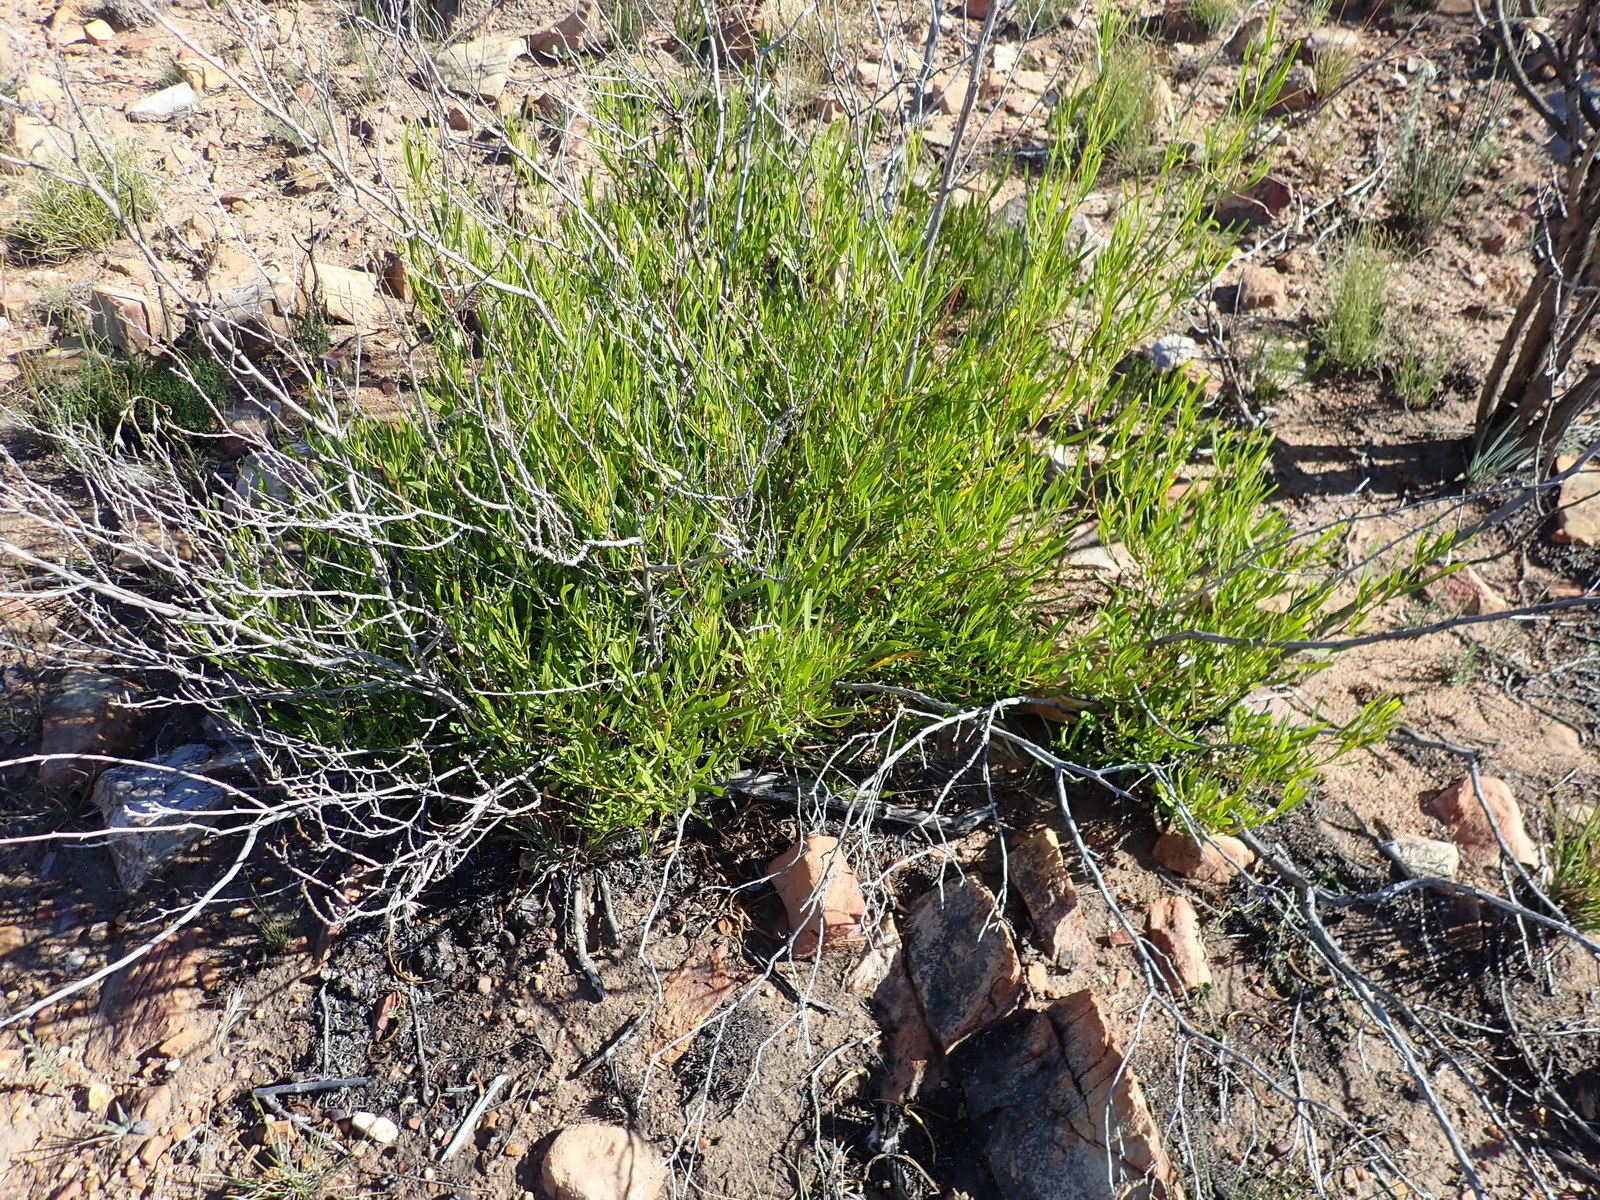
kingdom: Plantae
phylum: Tracheophyta
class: Magnoliopsida
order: Sapindales
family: Sapindaceae
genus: Dodonaea
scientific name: Dodonaea viscosa
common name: Hopbush
